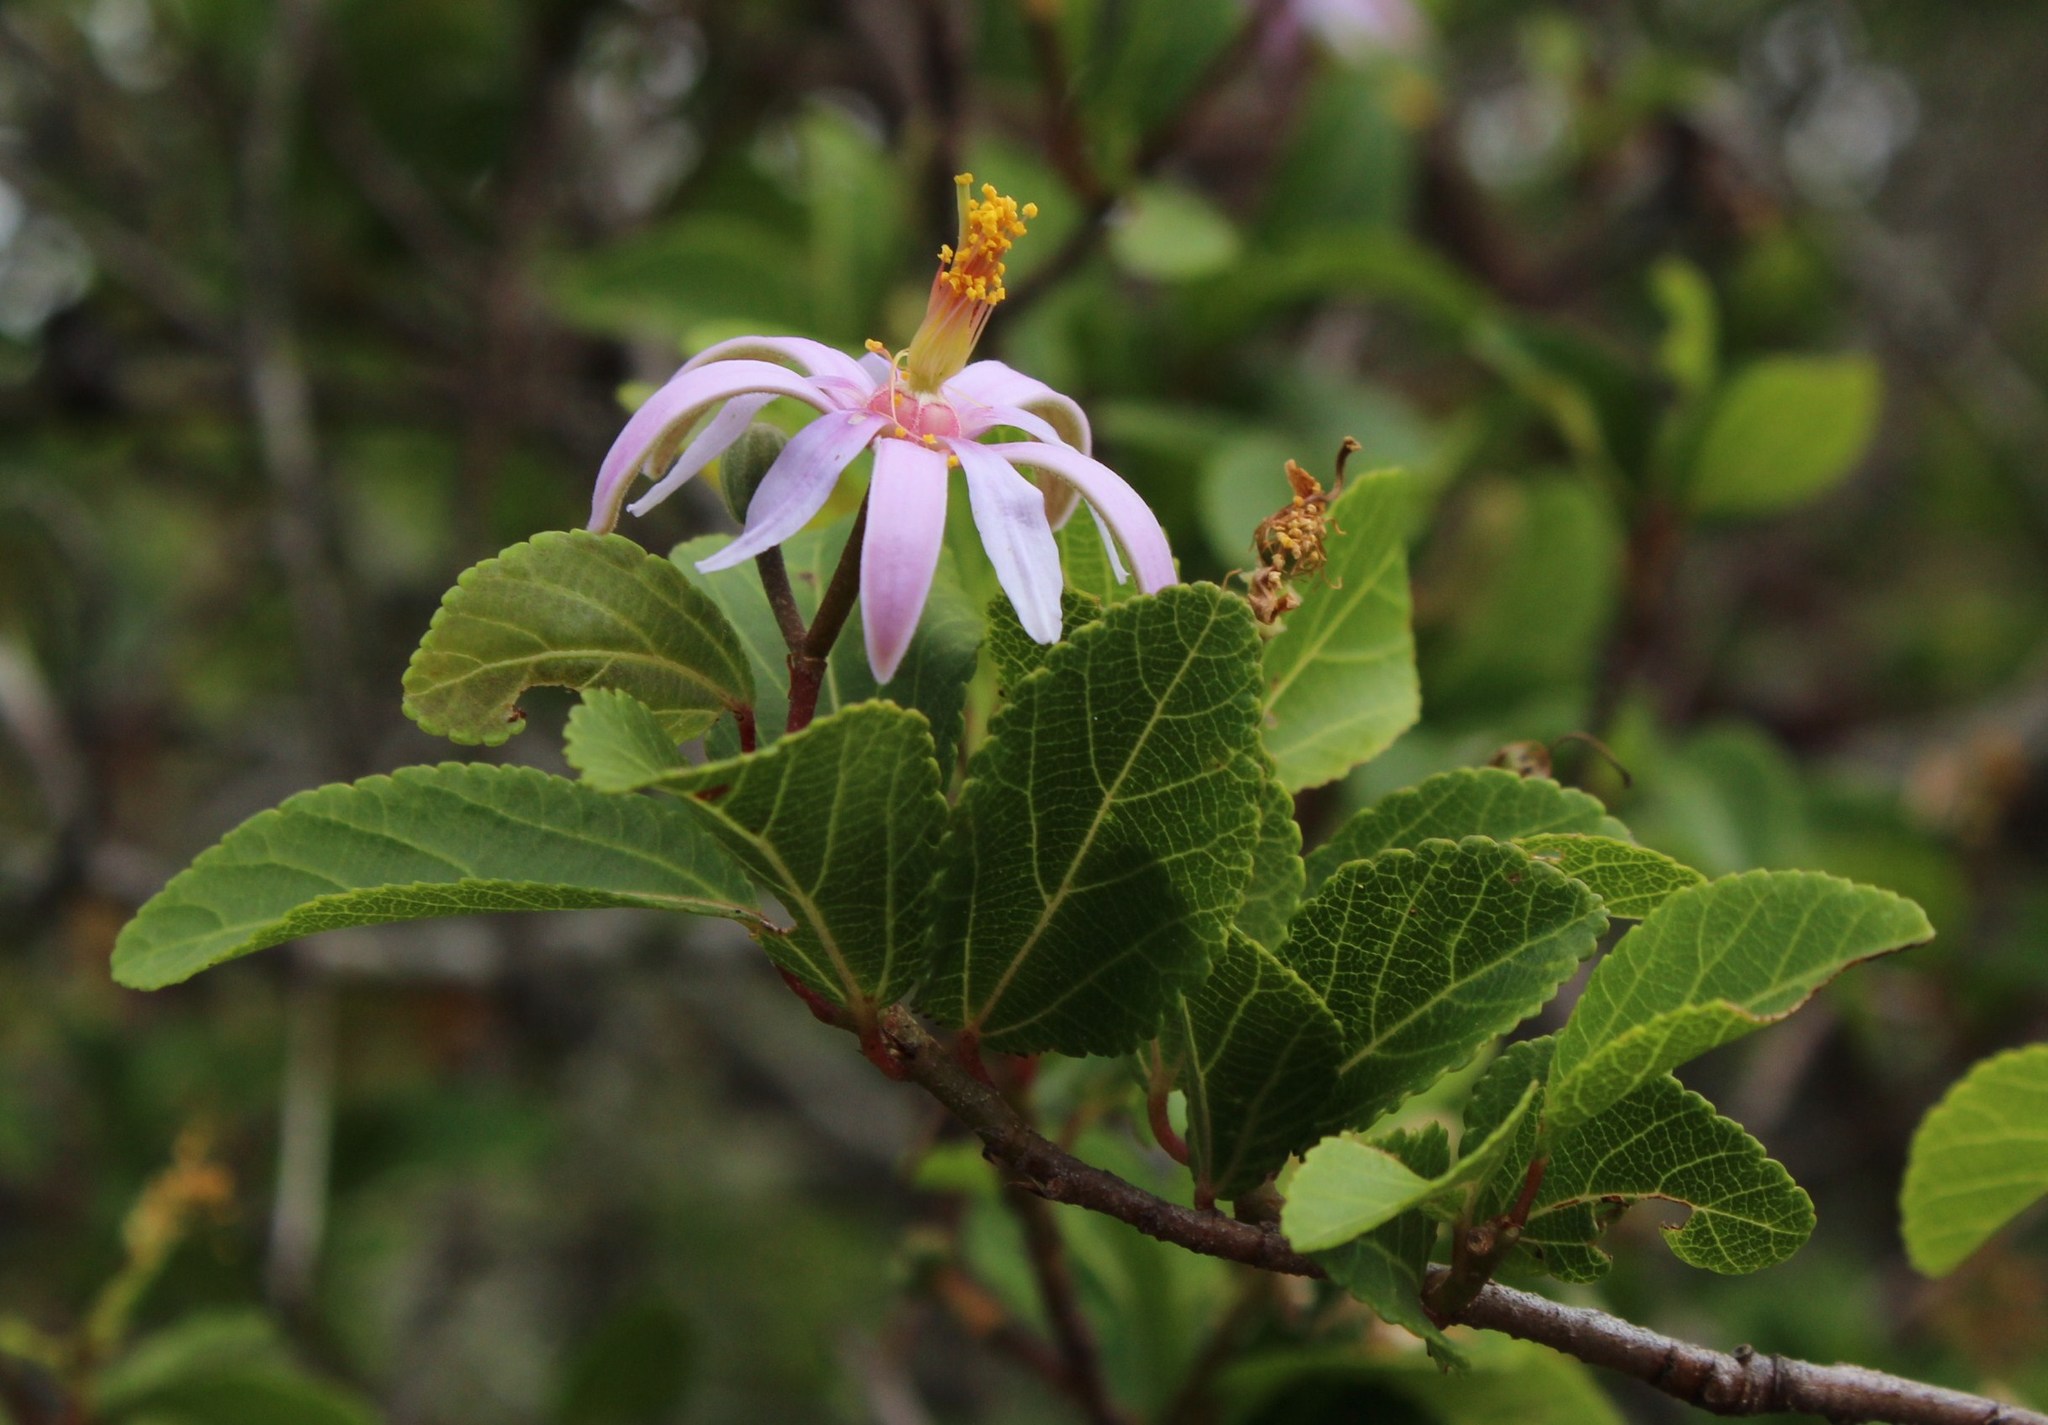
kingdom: Plantae
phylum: Tracheophyta
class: Magnoliopsida
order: Malvales
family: Malvaceae
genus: Grewia
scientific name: Grewia occidentalis
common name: Crossberry
